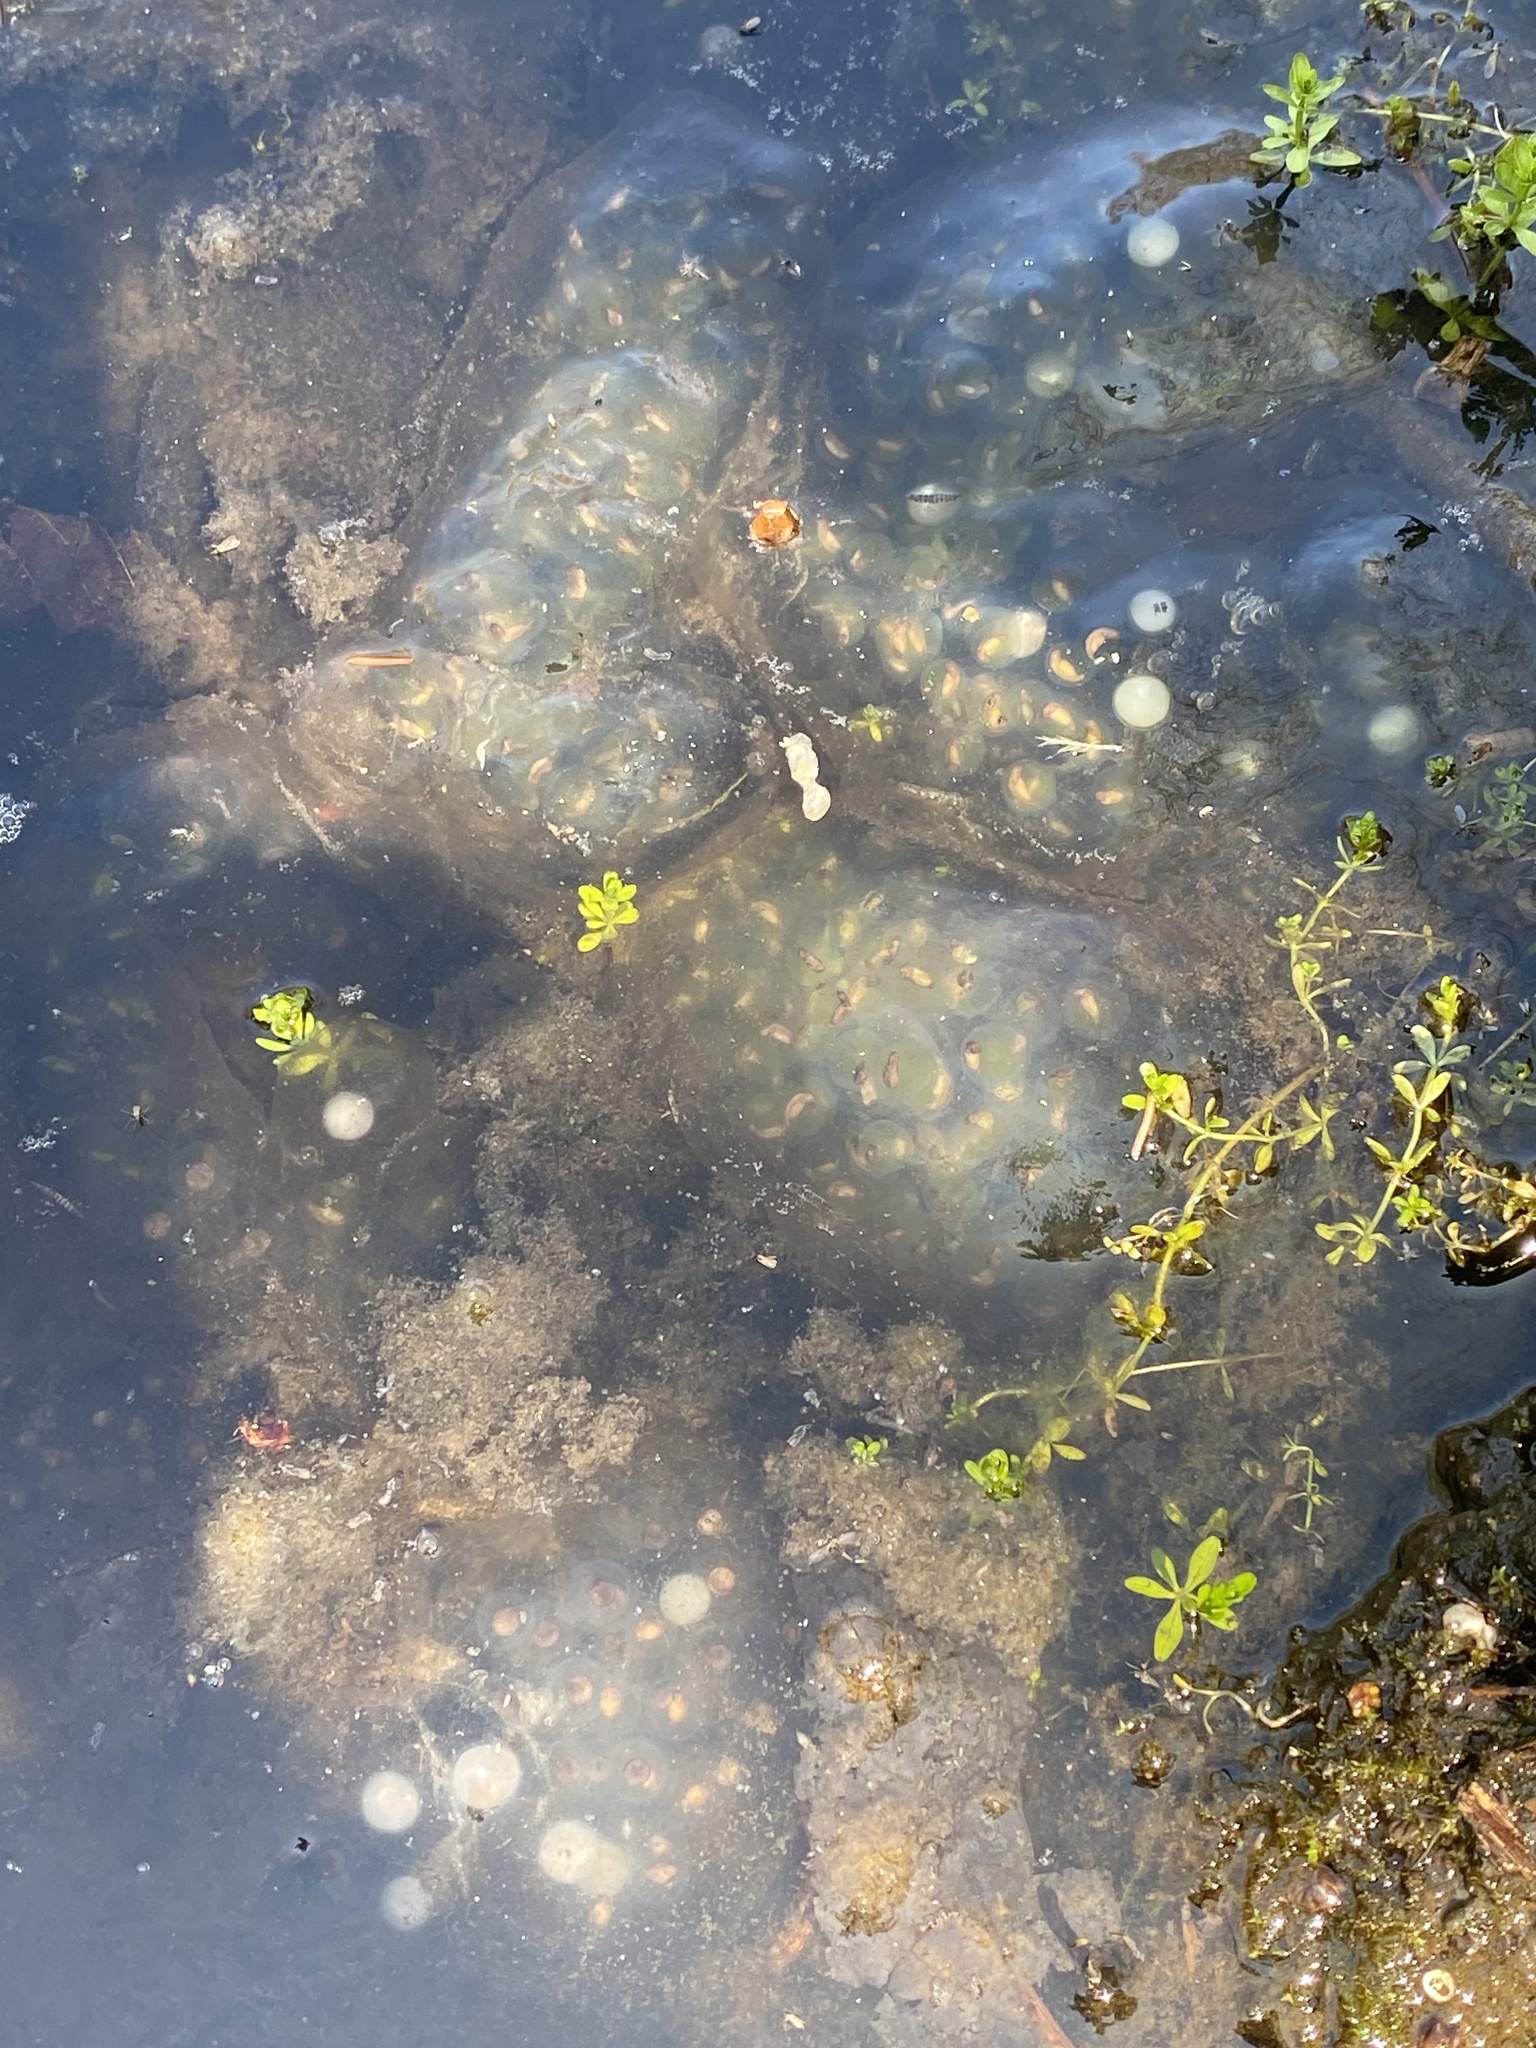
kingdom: Animalia
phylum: Chordata
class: Amphibia
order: Caudata
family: Ambystomatidae
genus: Ambystoma
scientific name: Ambystoma maculatum
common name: Spotted salamander
